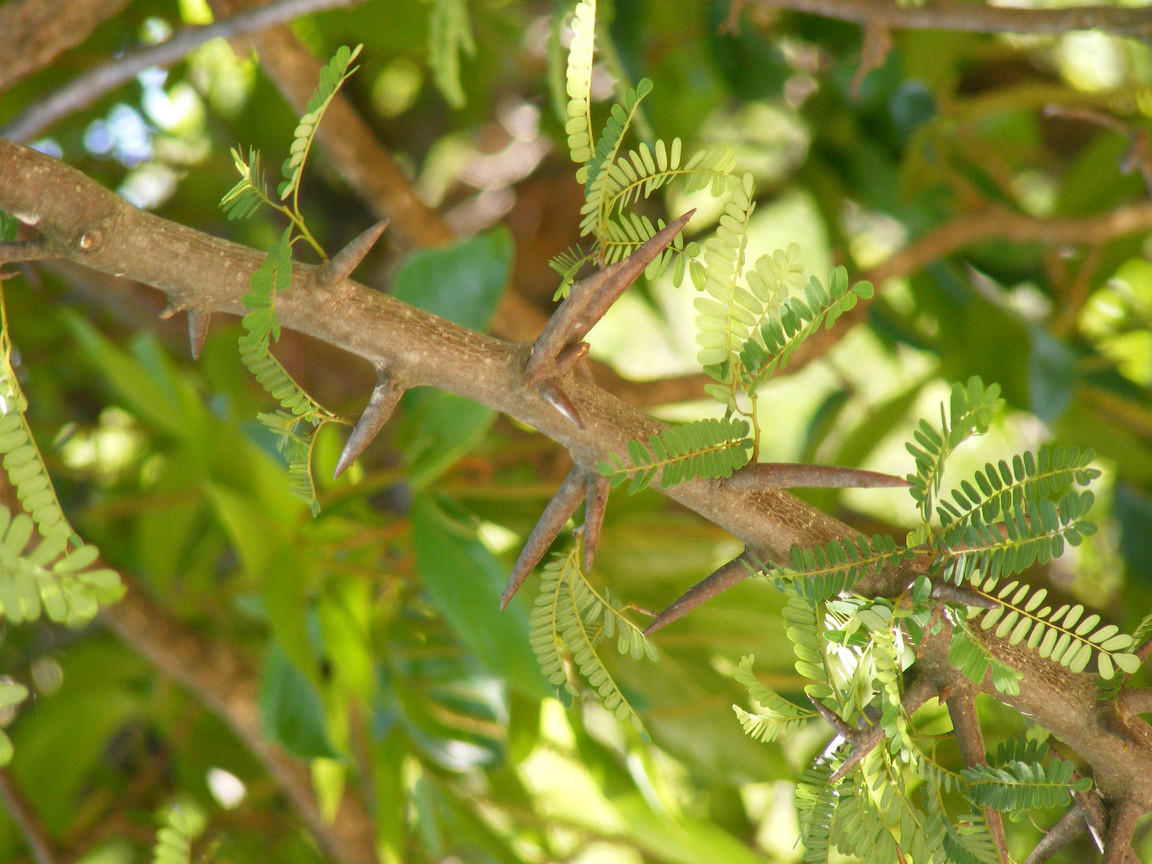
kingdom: Plantae
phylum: Tracheophyta
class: Magnoliopsida
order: Fabales
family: Fabaceae
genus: Dalbergia
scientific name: Dalbergia armata
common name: Hluhluwe climber
